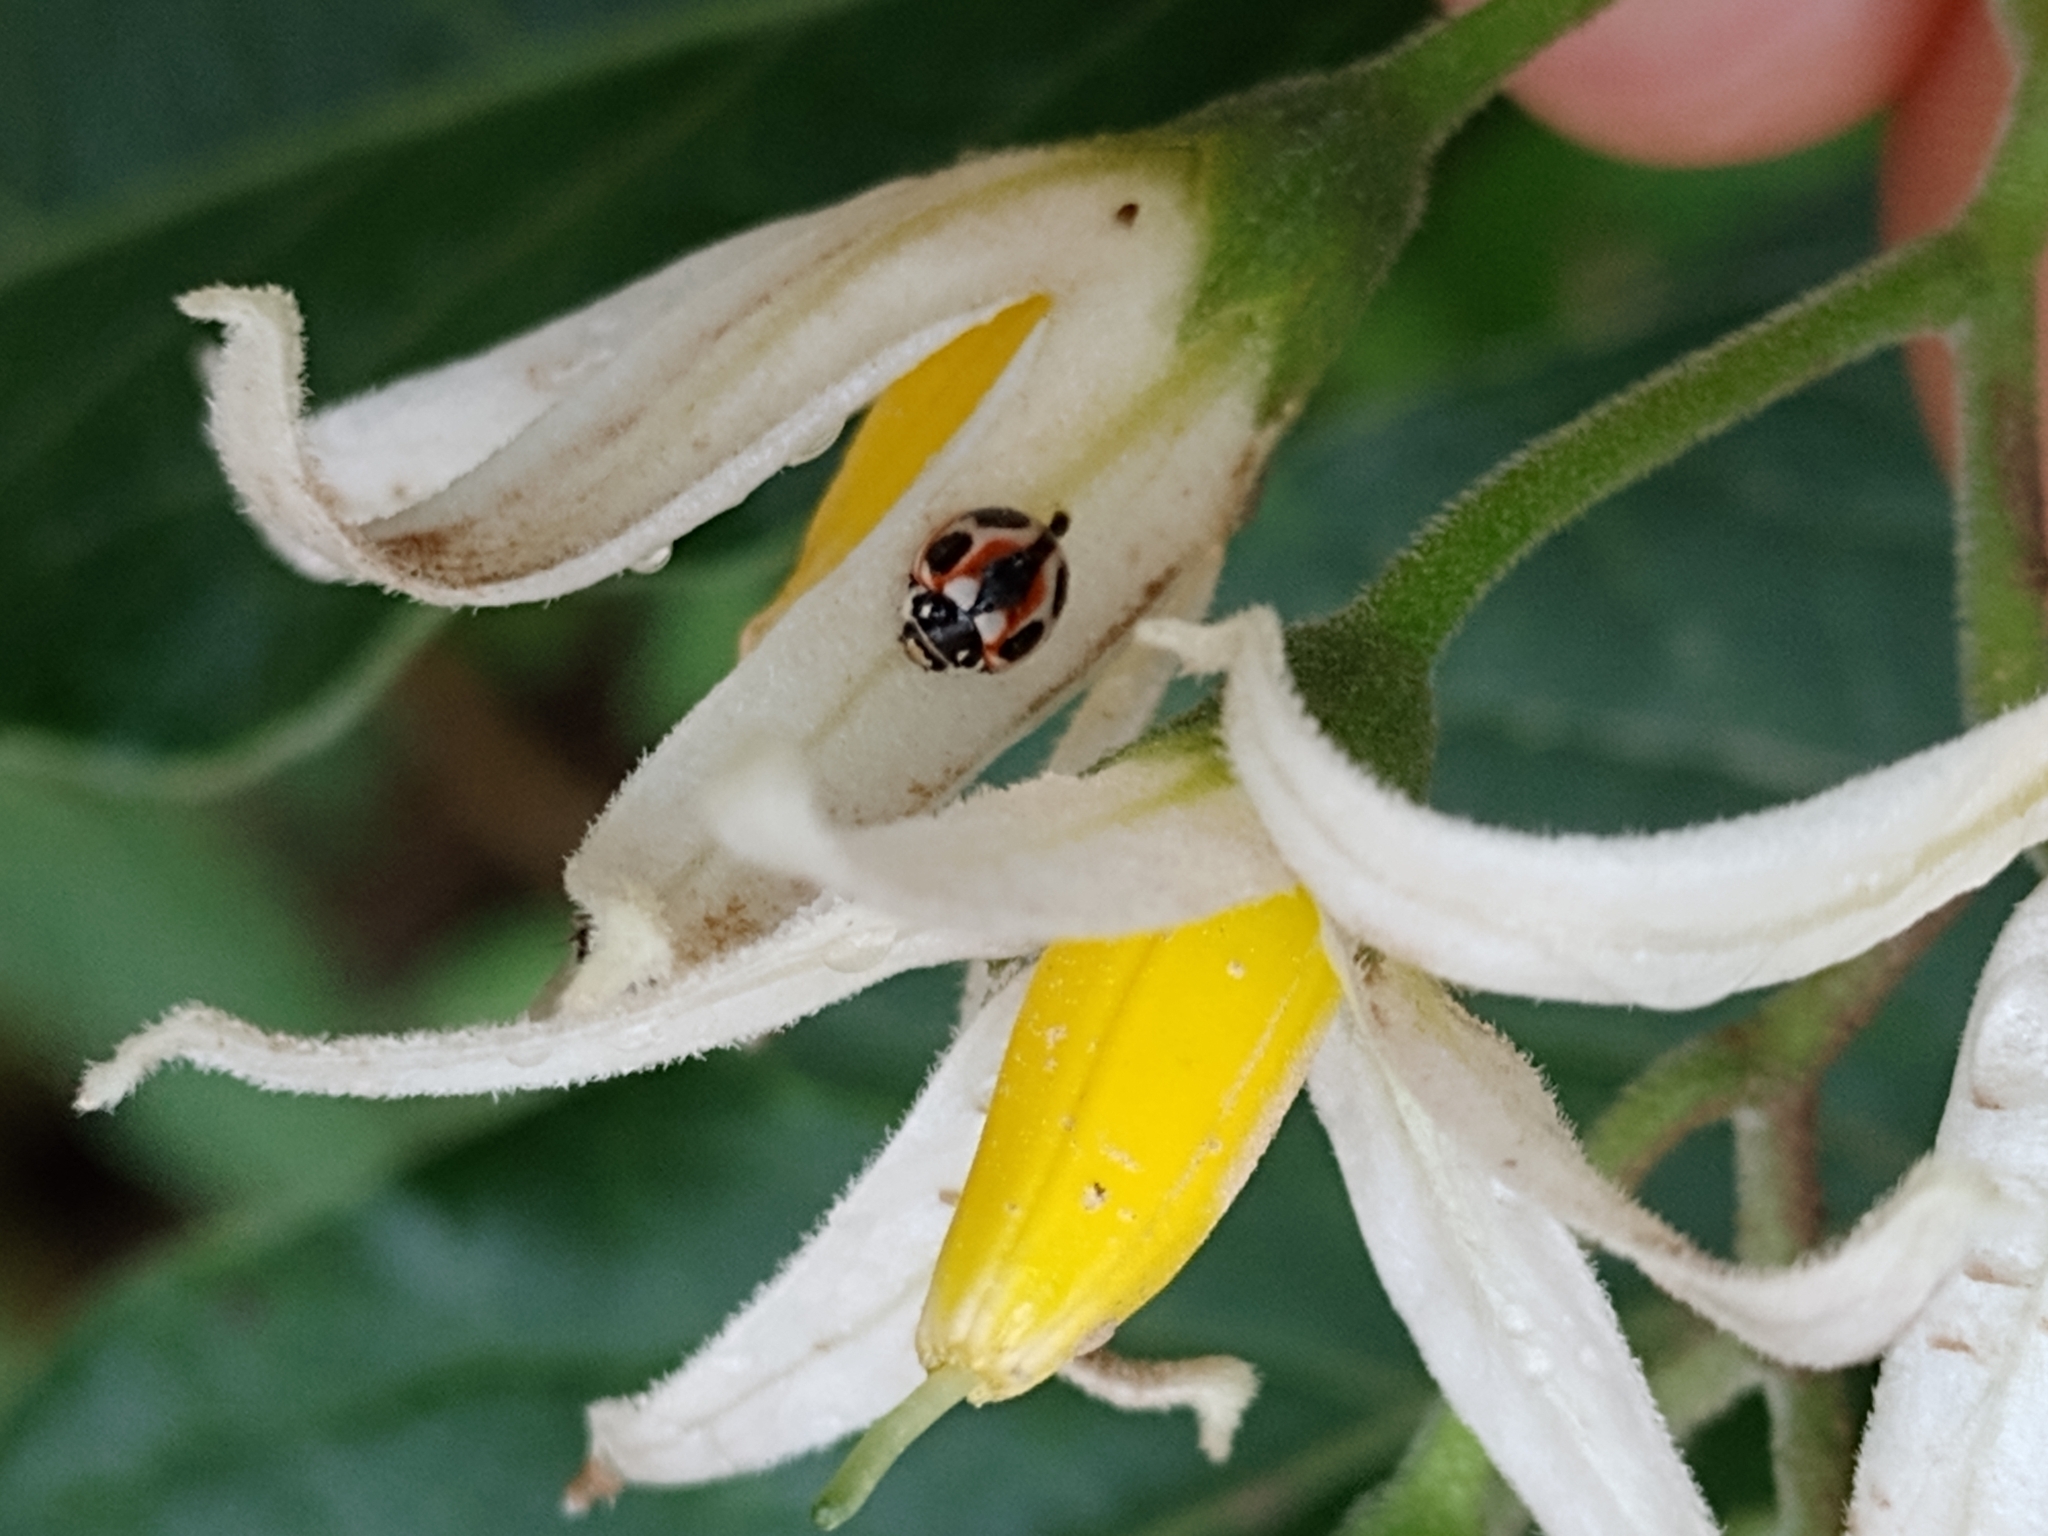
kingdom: Animalia
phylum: Arthropoda
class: Insecta
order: Coleoptera
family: Coccinellidae
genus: Cycloneda
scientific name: Cycloneda ancoralis
